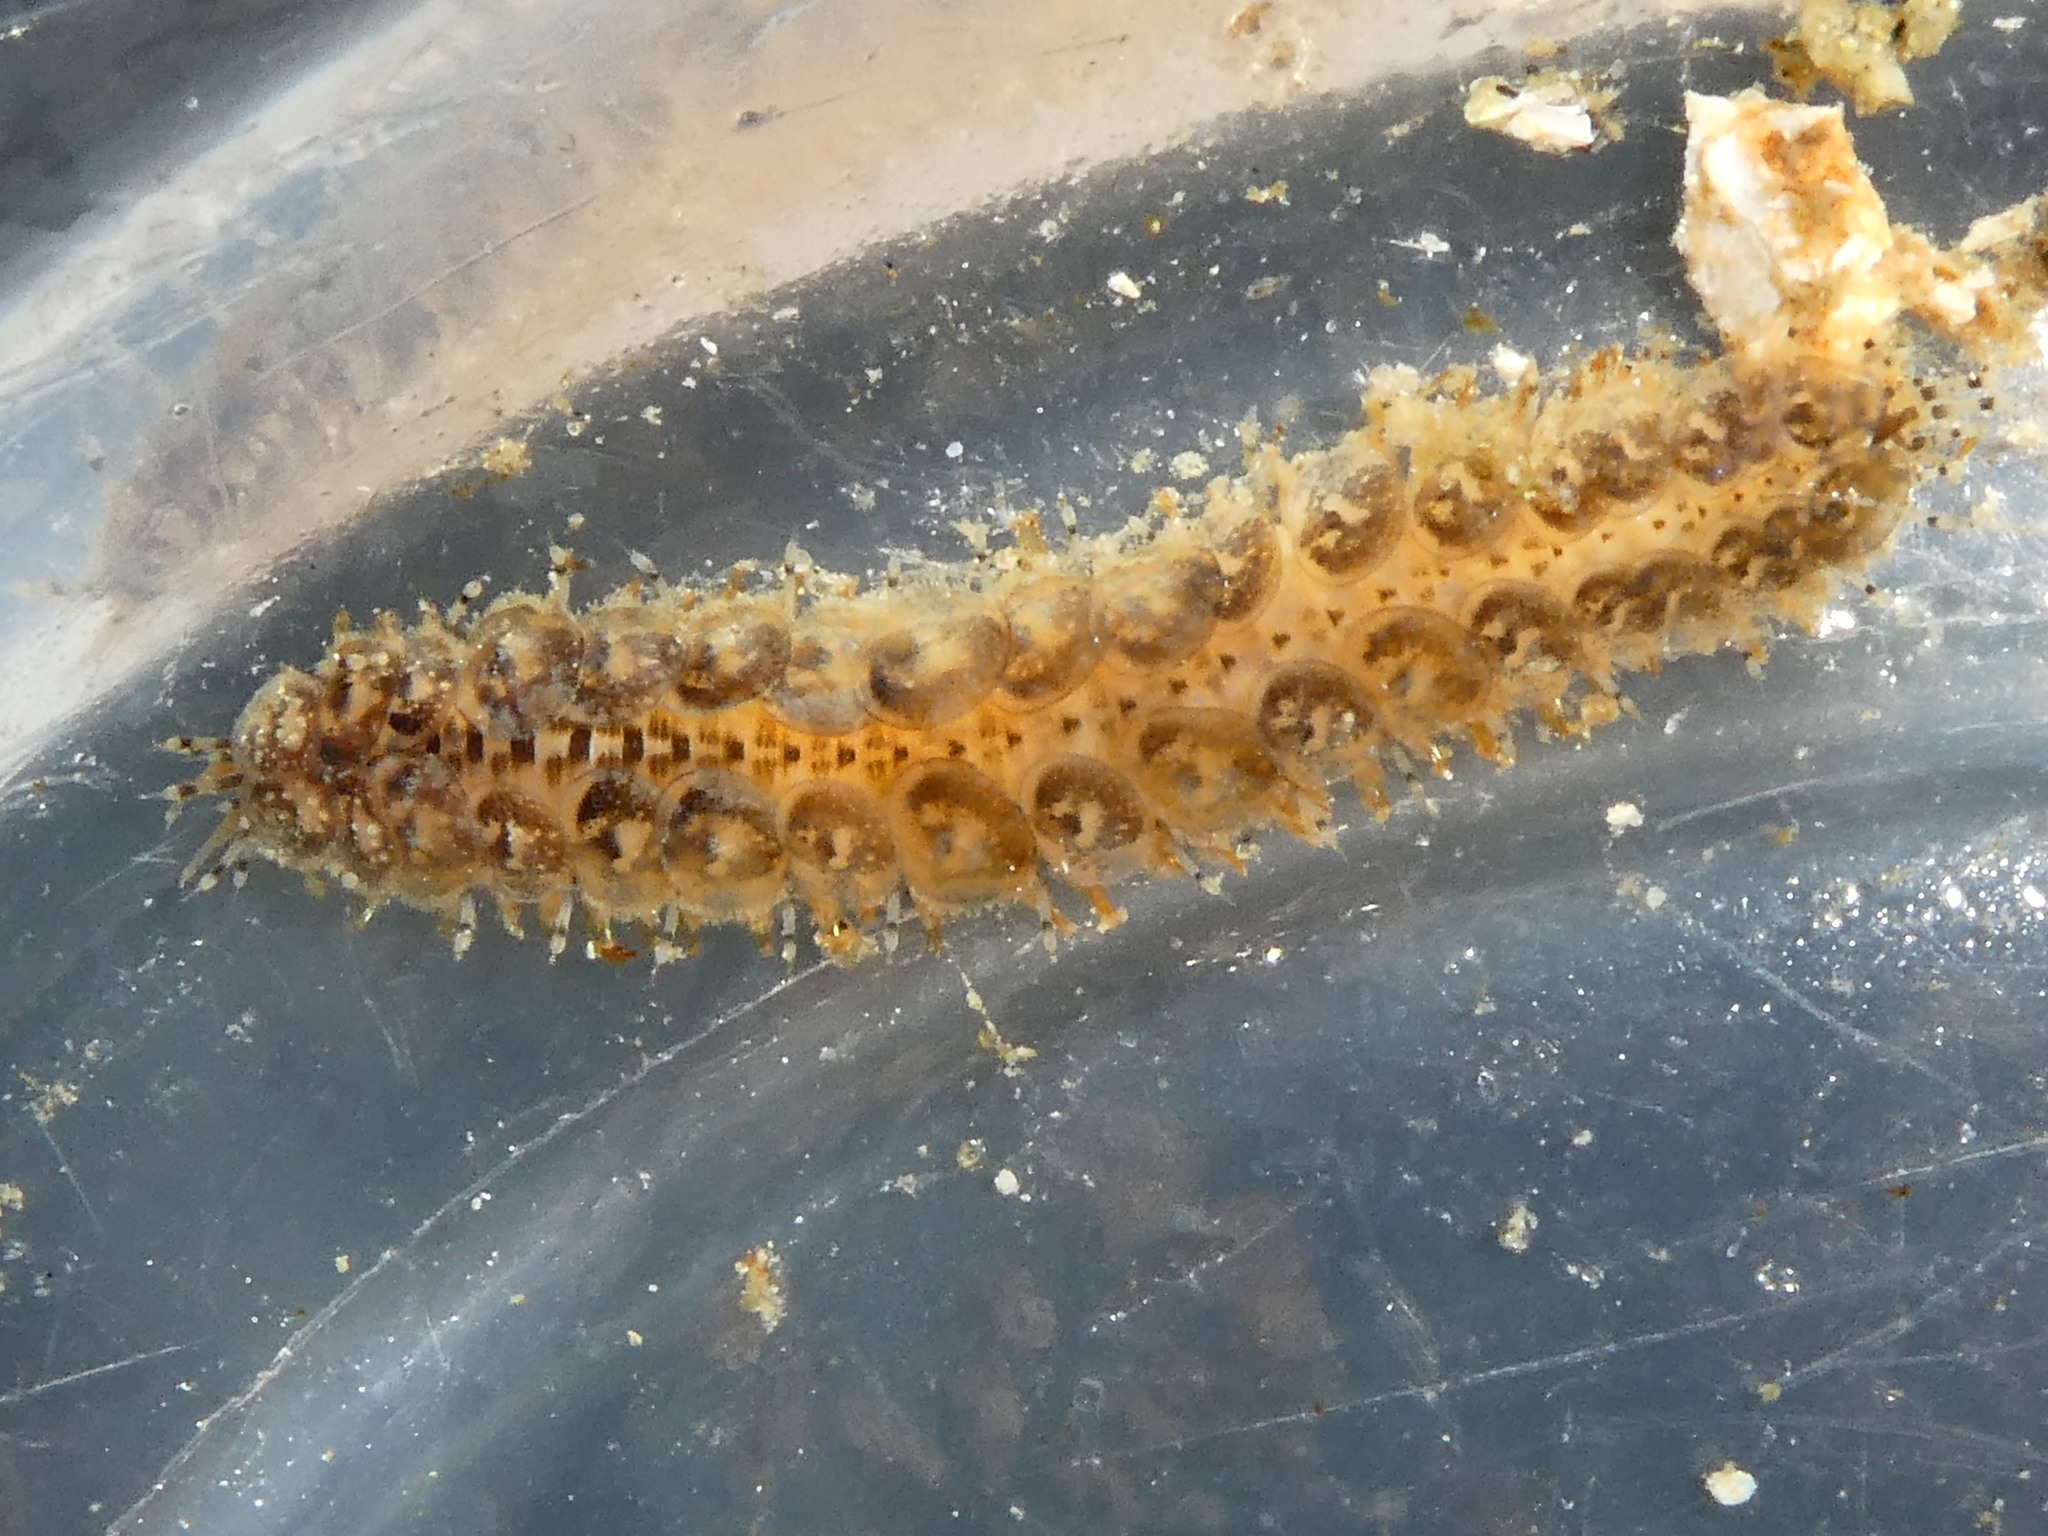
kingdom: Animalia
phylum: Annelida
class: Polychaeta
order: Phyllodocida
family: Polynoidae
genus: Halosydna
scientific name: Halosydna brevisetosa
